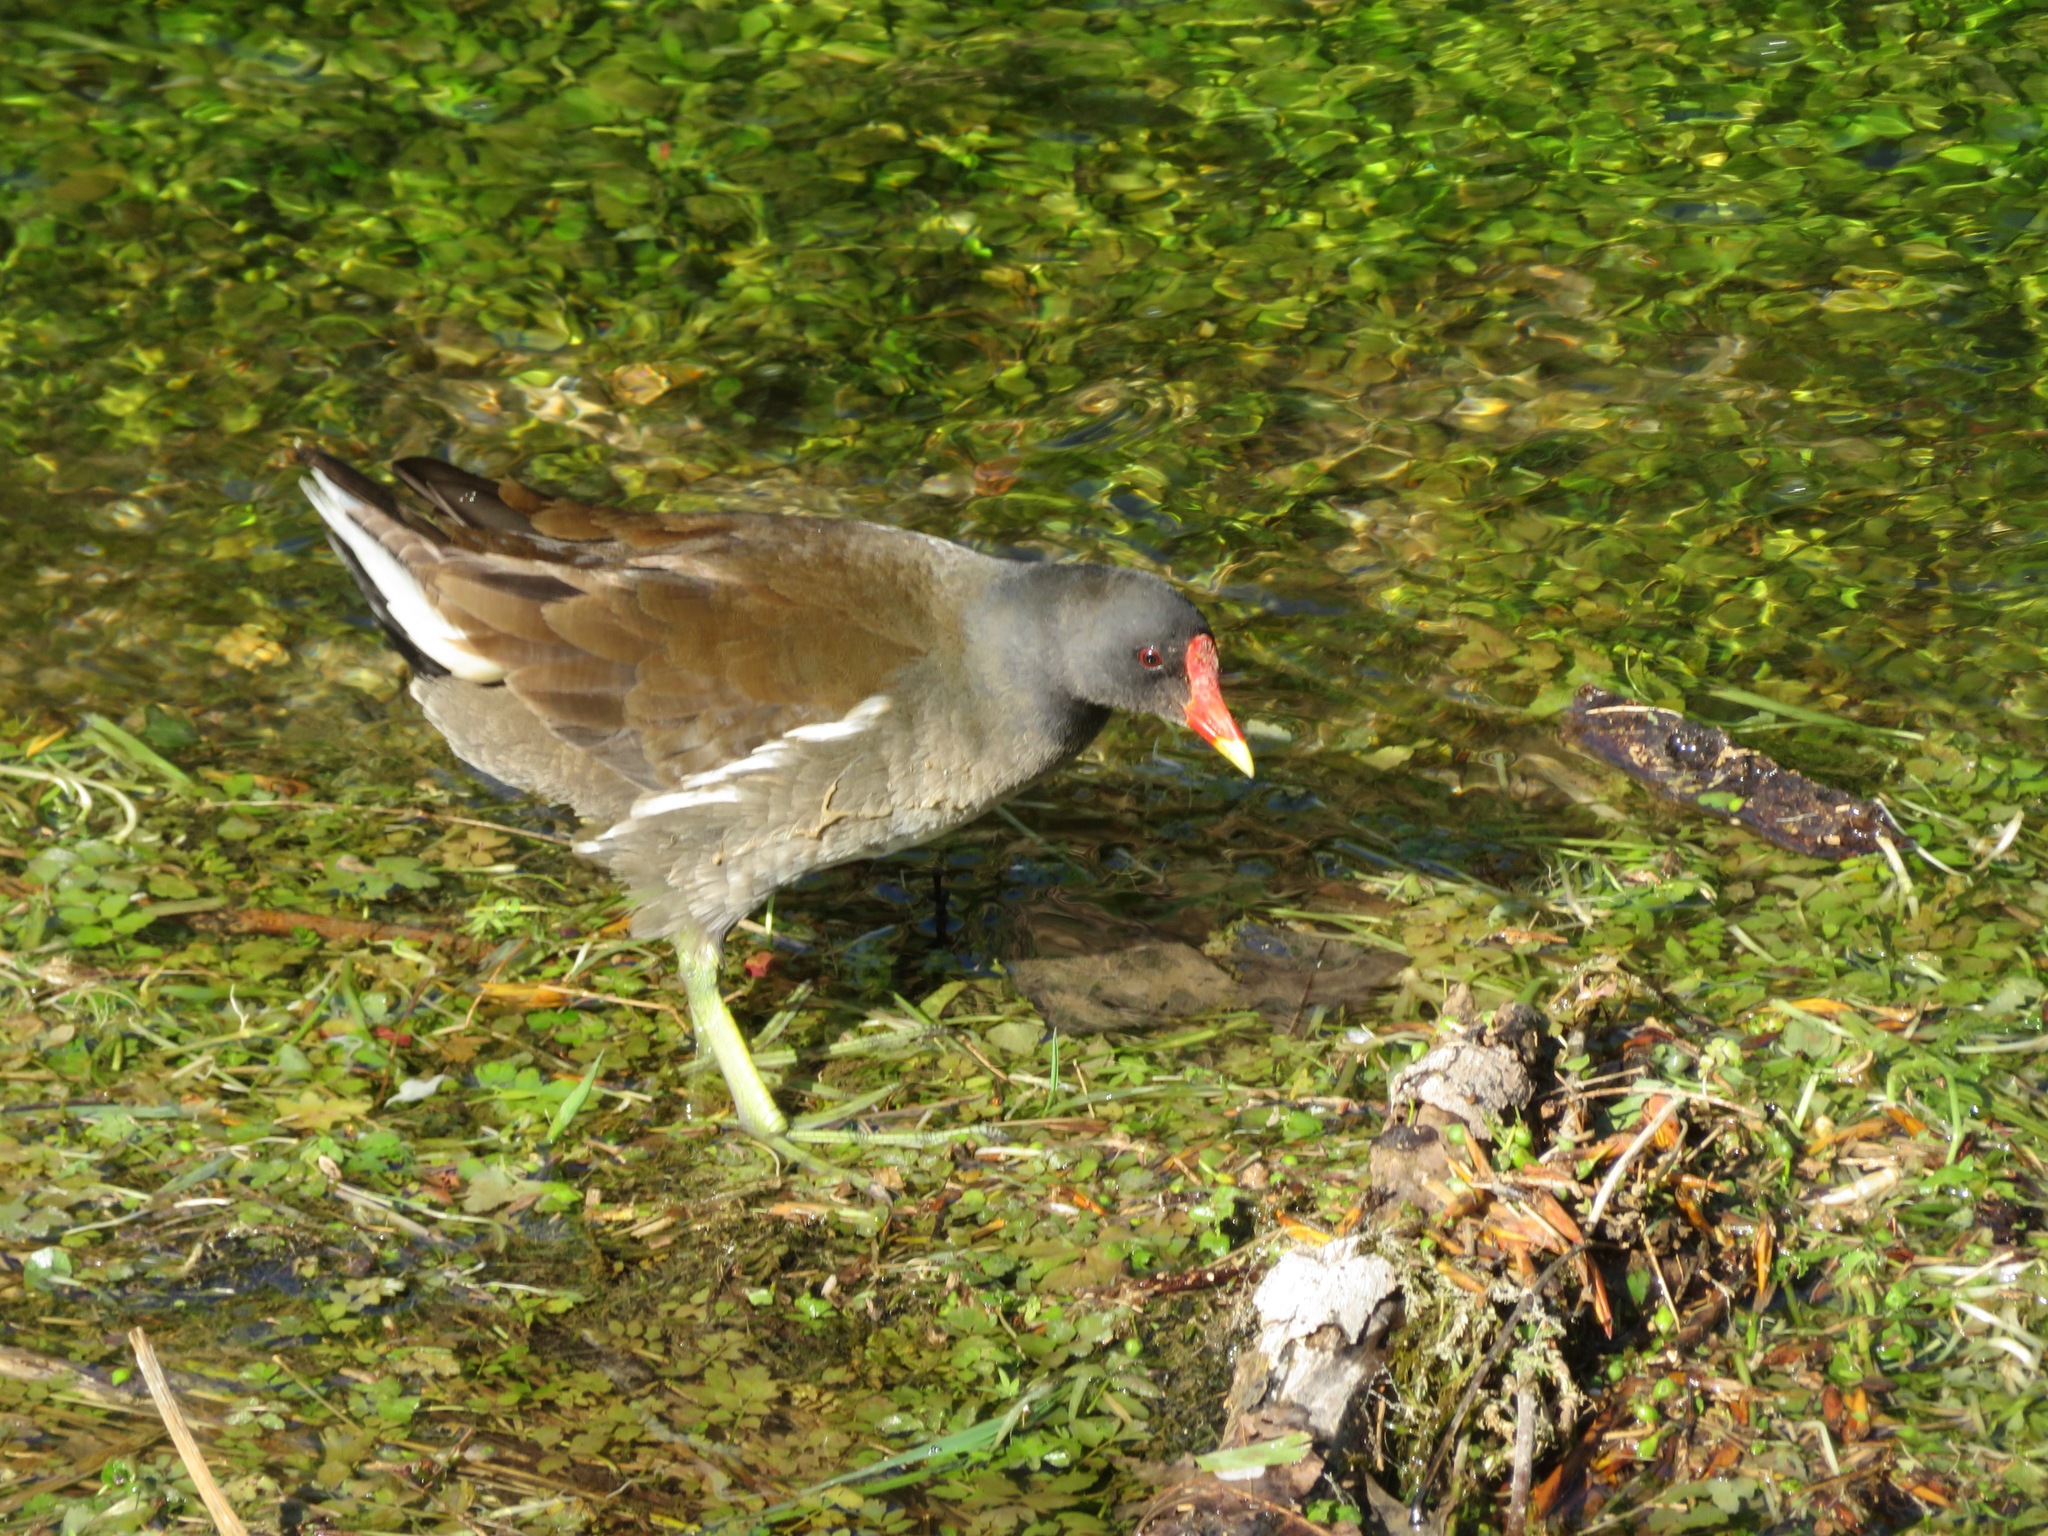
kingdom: Animalia
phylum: Chordata
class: Aves
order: Gruiformes
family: Rallidae
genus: Gallinula
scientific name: Gallinula chloropus
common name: Common moorhen
